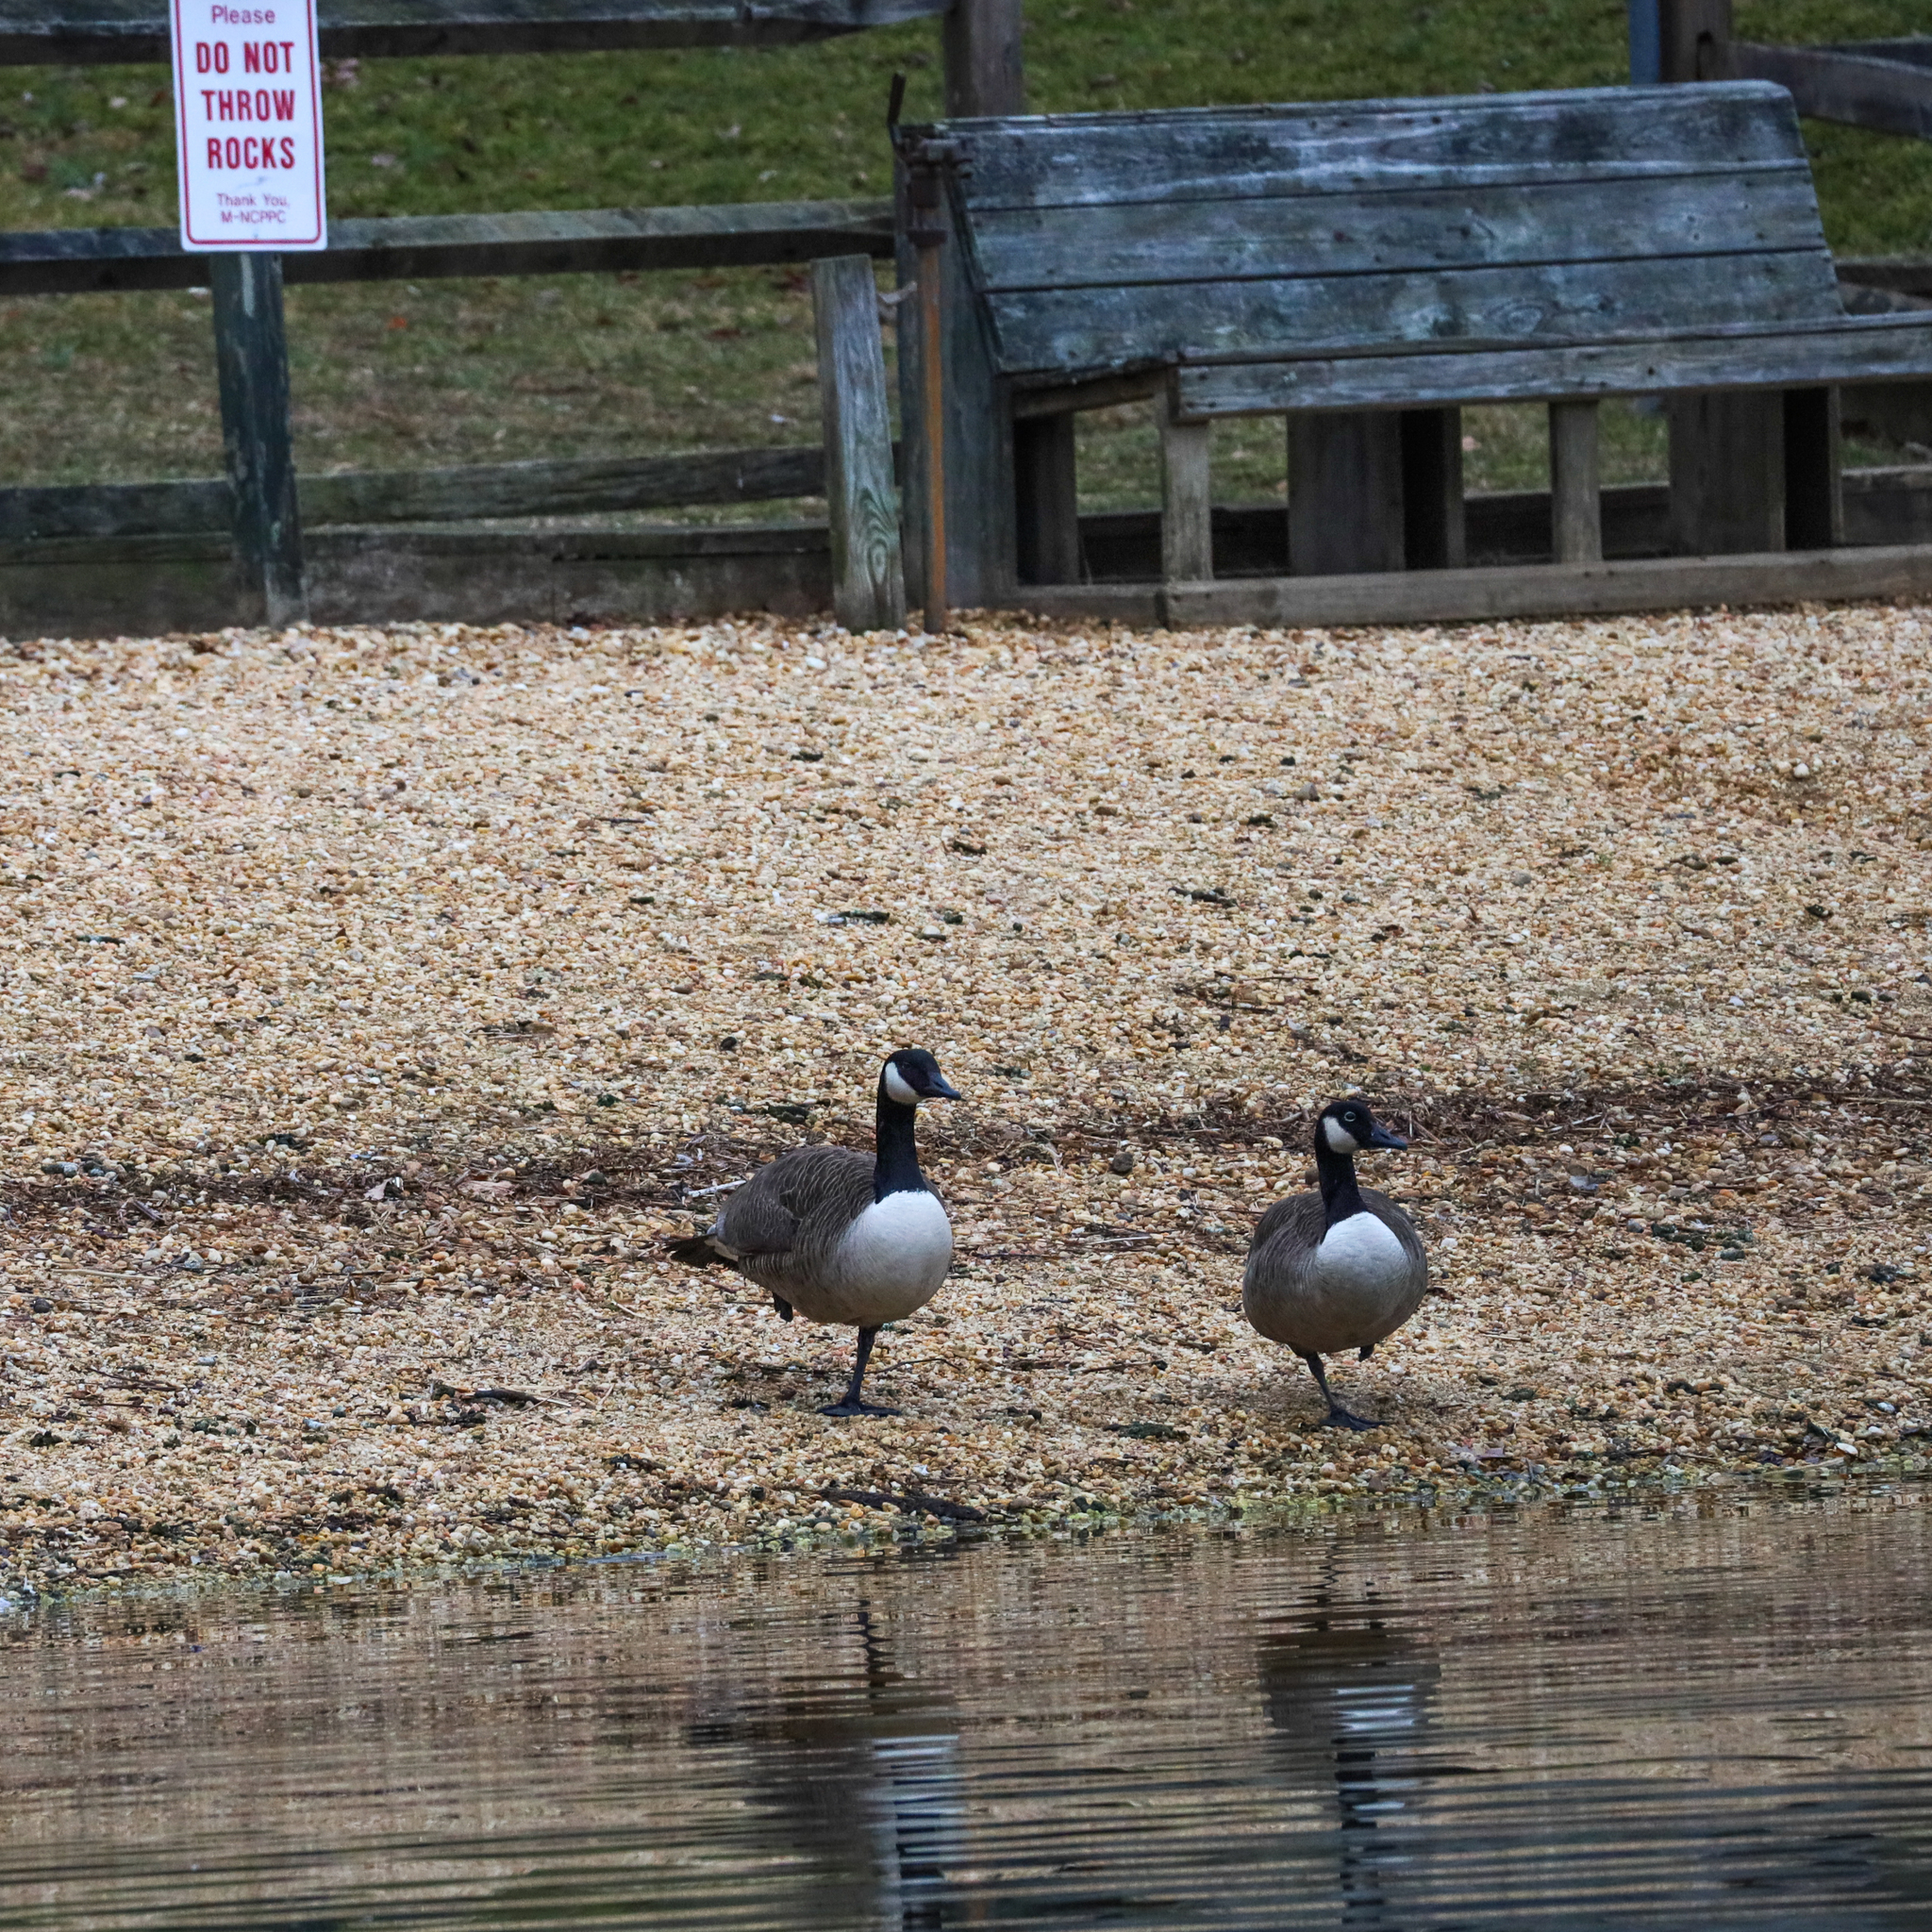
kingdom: Animalia
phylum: Chordata
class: Aves
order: Anseriformes
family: Anatidae
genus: Branta
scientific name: Branta canadensis
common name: Canada goose
